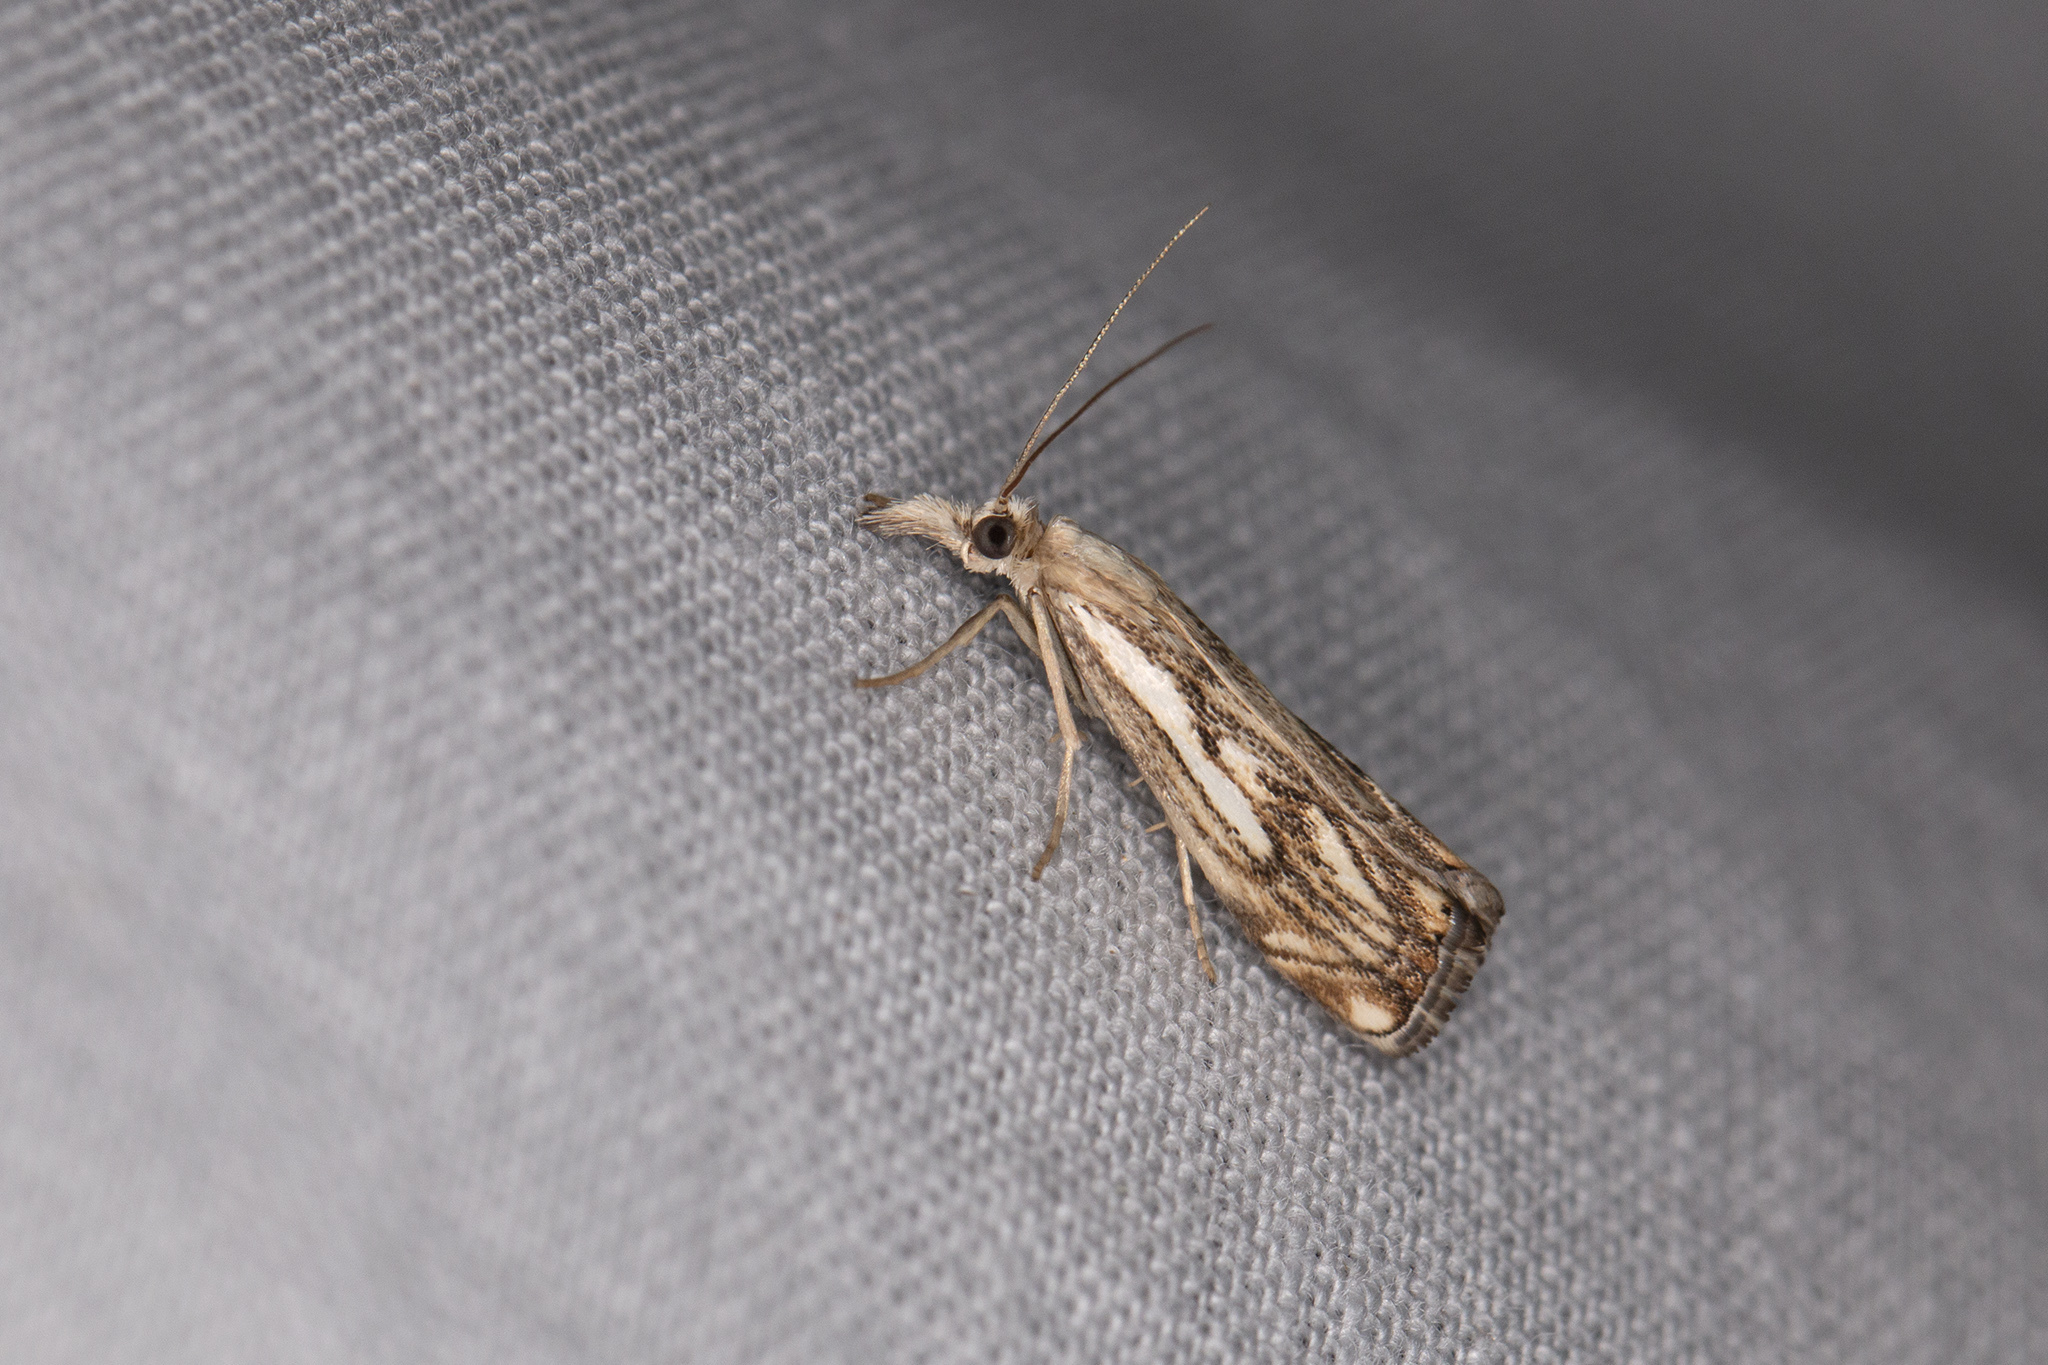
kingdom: Animalia
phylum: Arthropoda
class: Insecta
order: Lepidoptera
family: Crambidae
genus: Catoptria
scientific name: Catoptria falsella
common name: Chequered grass-veneer
